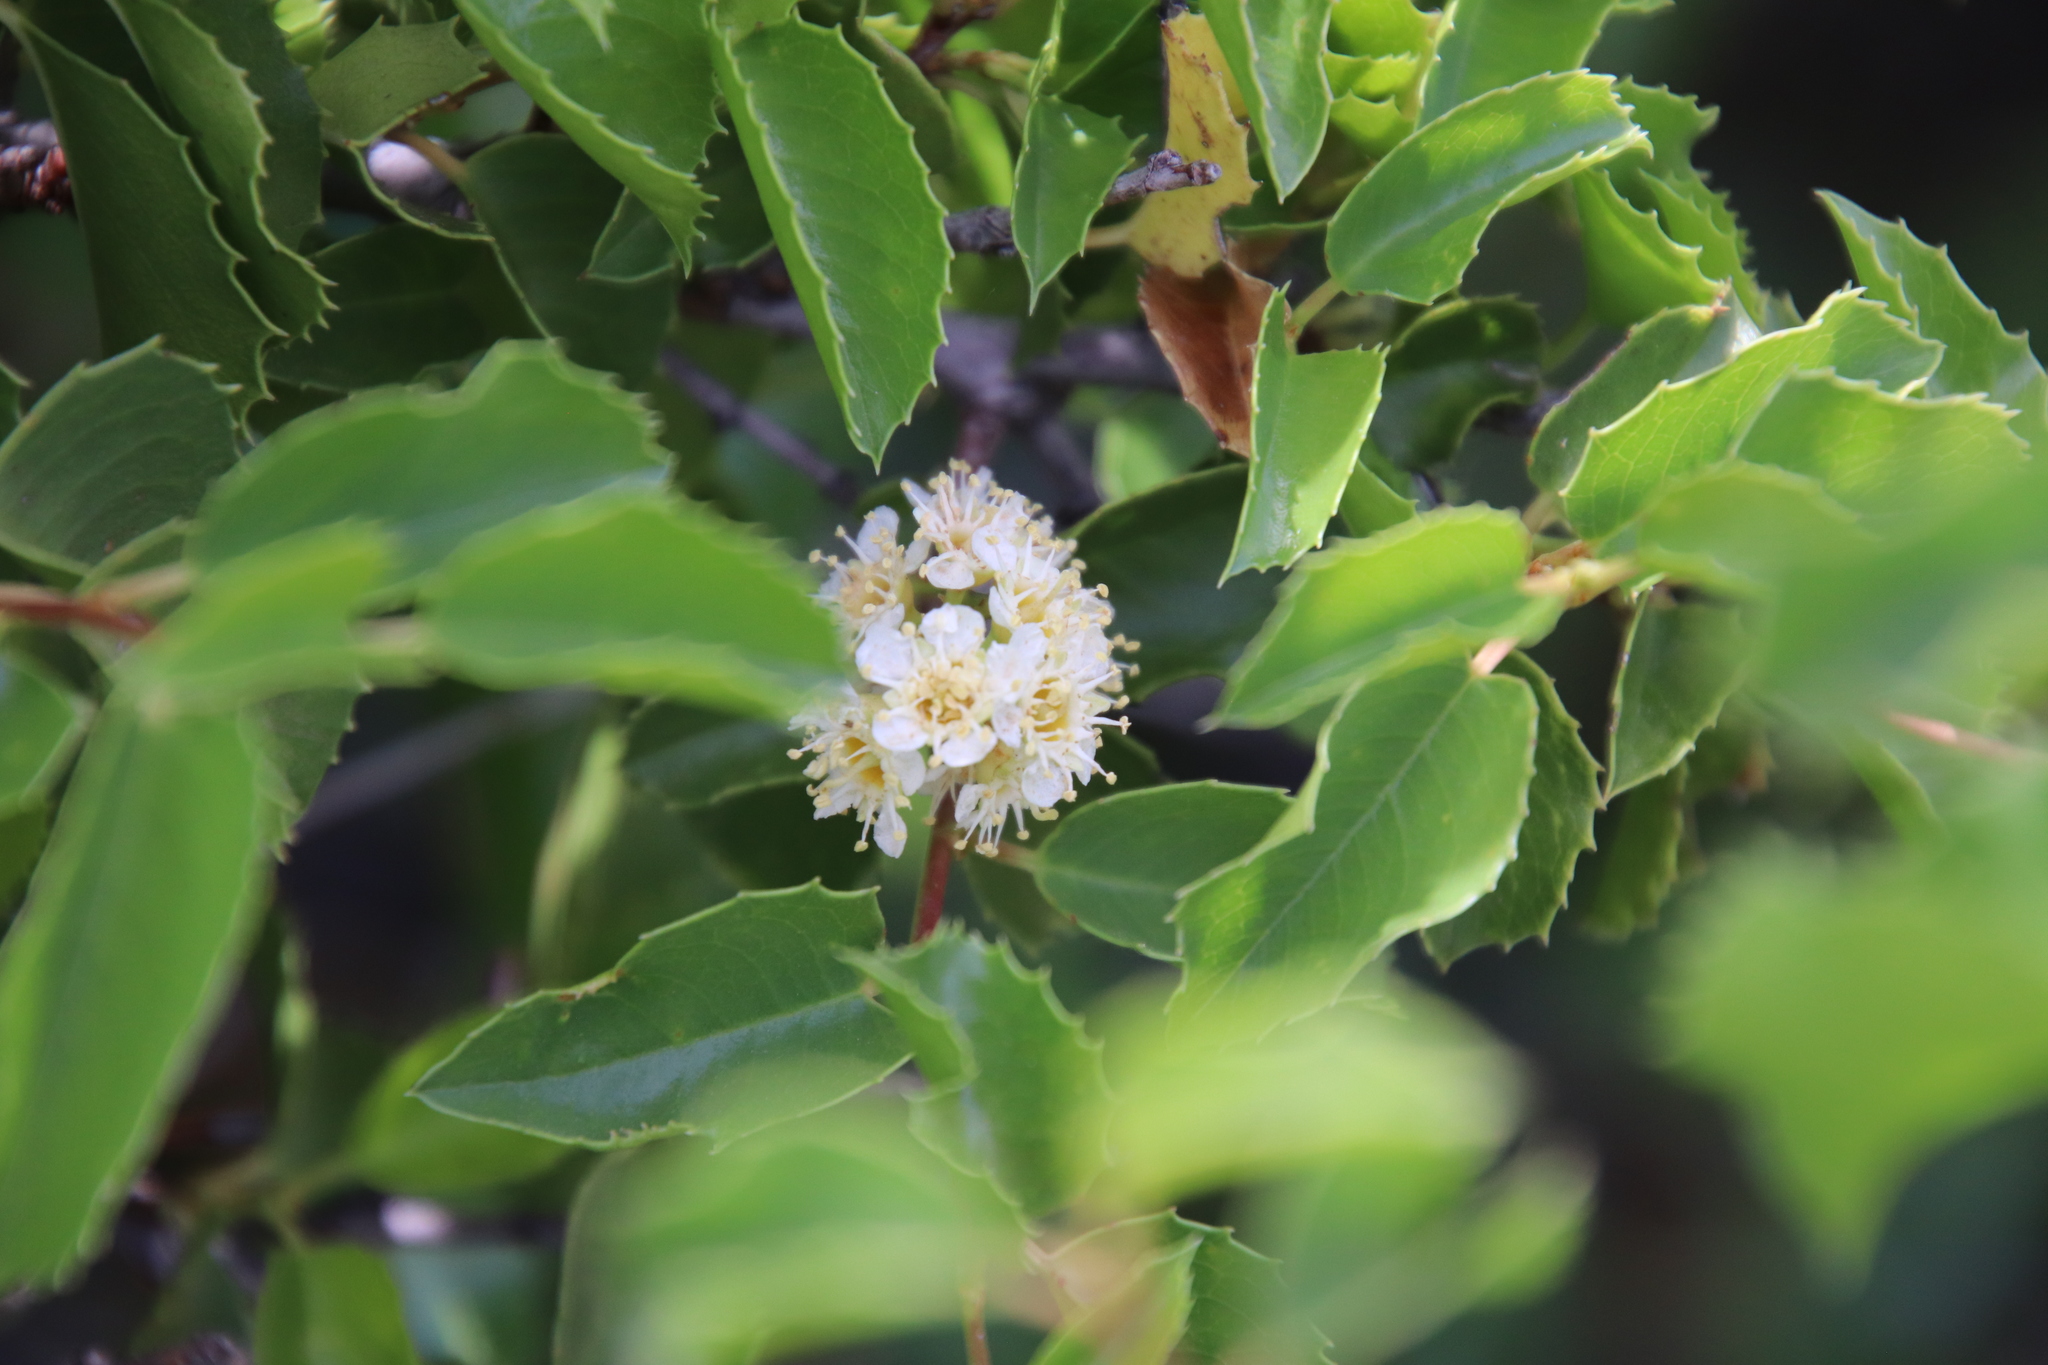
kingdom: Plantae
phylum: Tracheophyta
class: Magnoliopsida
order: Rosales
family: Rosaceae
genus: Prunus
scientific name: Prunus ilicifolia
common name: Hollyleaf cherry
